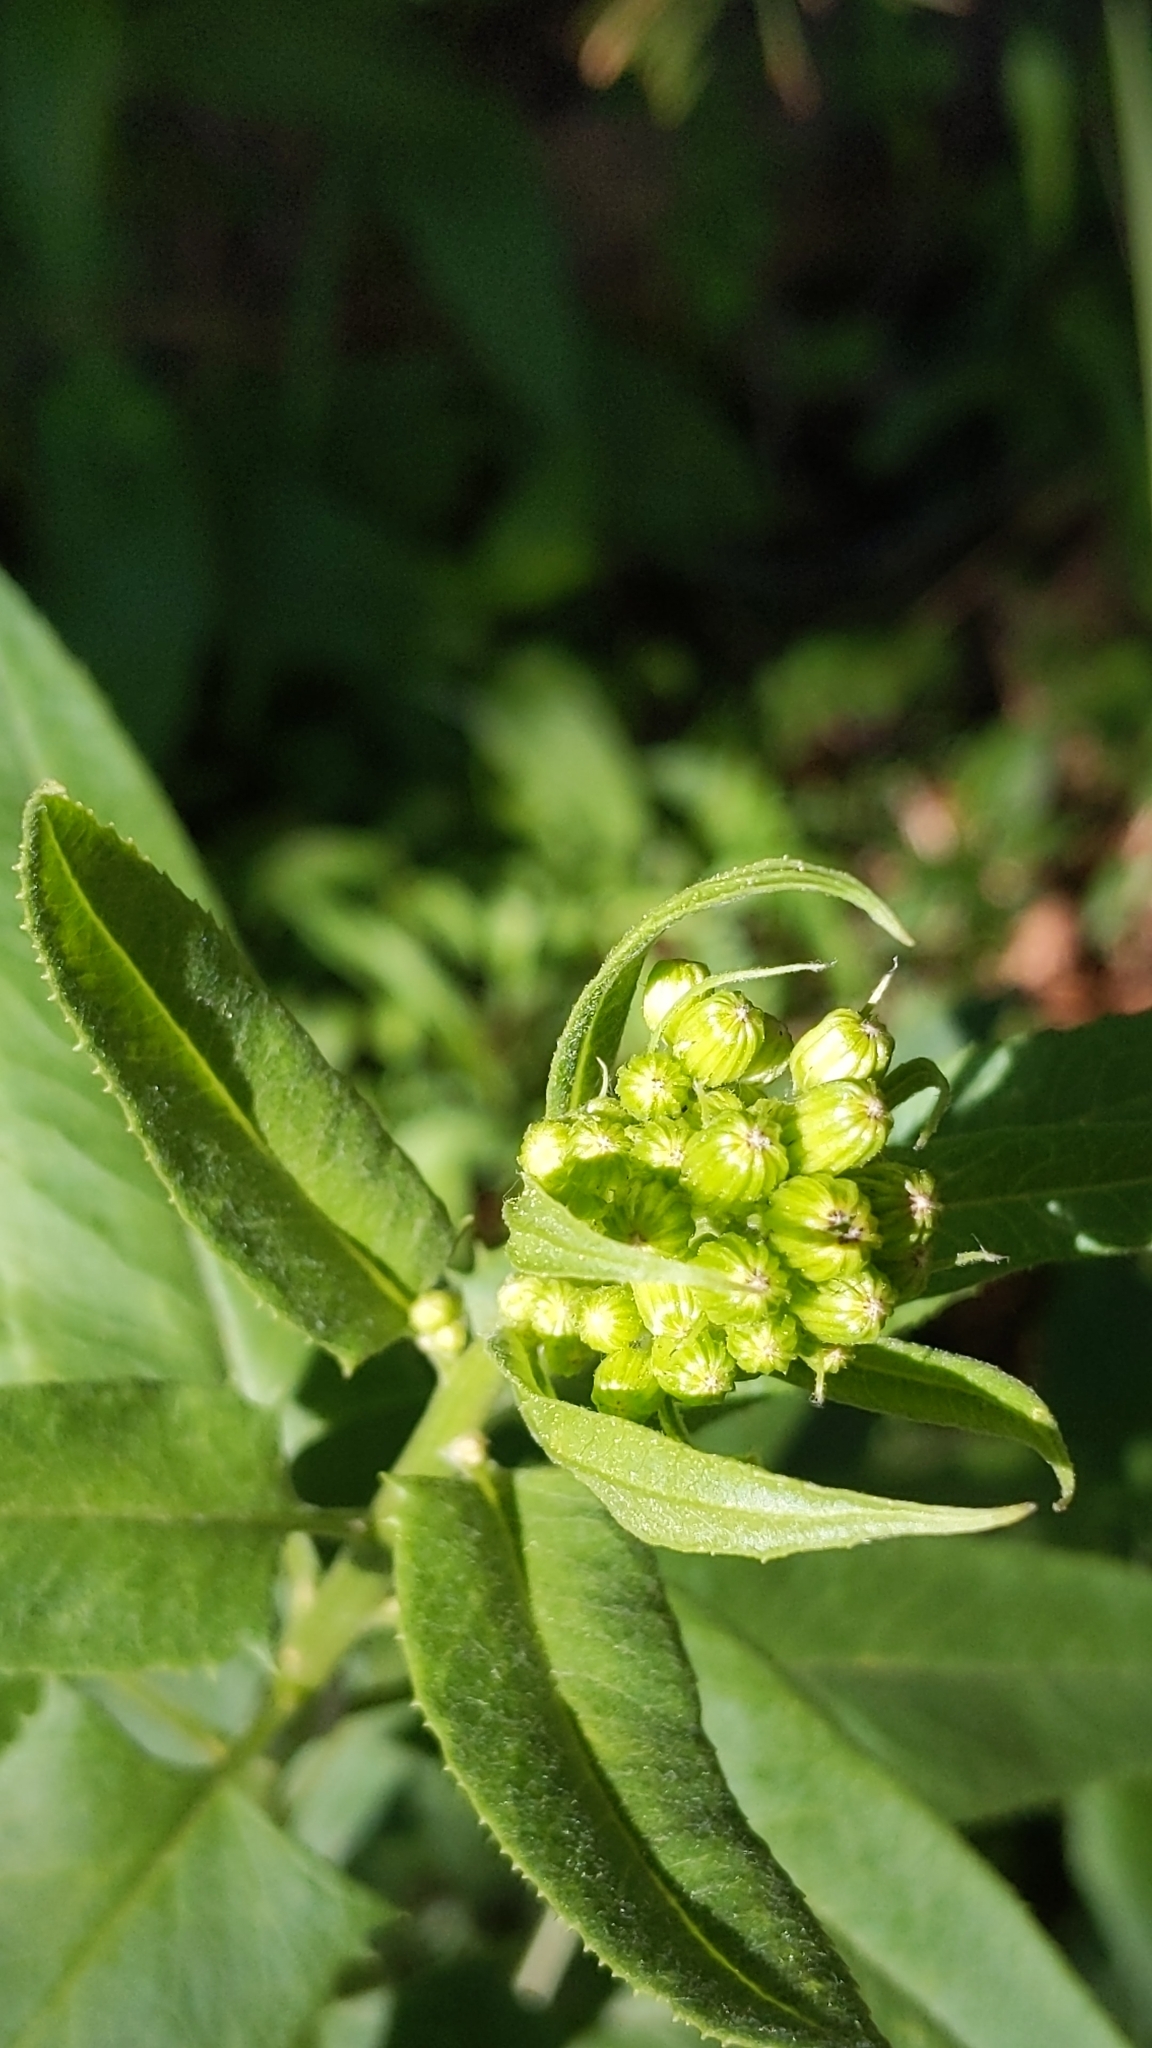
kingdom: Plantae
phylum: Tracheophyta
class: Magnoliopsida
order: Asterales
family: Asteraceae
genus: Senecio
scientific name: Senecio triangularis
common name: Arrowleaf butterweed
